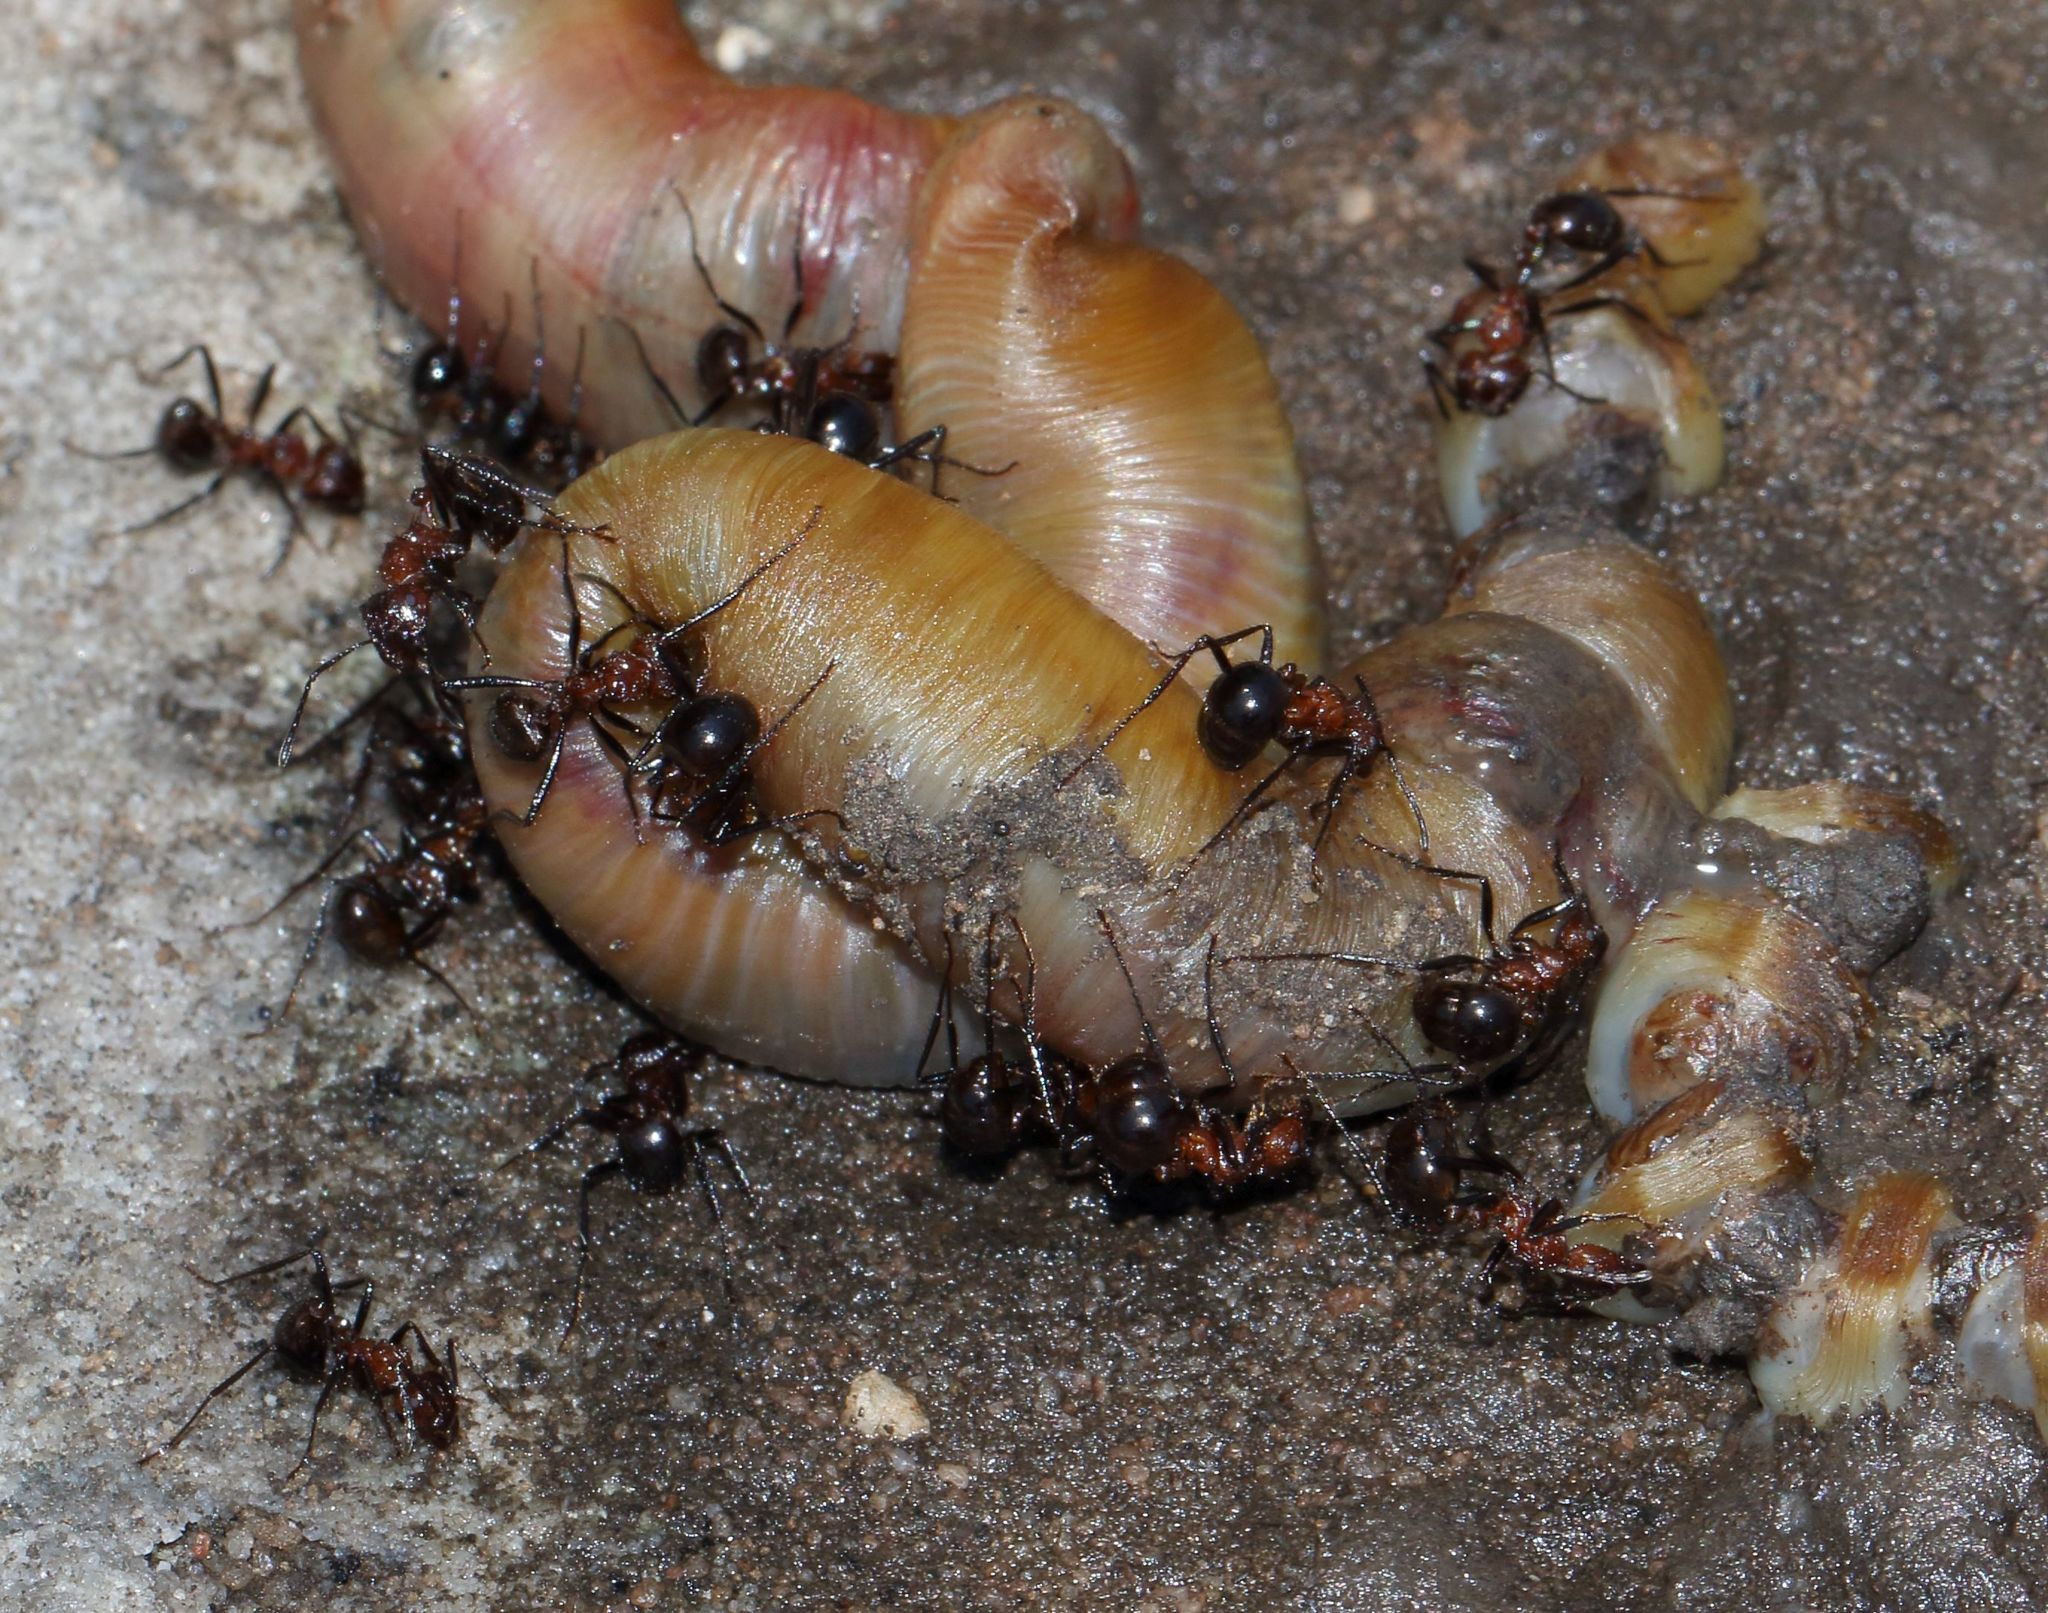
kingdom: Animalia
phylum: Arthropoda
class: Insecta
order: Hymenoptera
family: Formicidae
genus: Myrmicaria
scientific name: Myrmicaria natalensis
